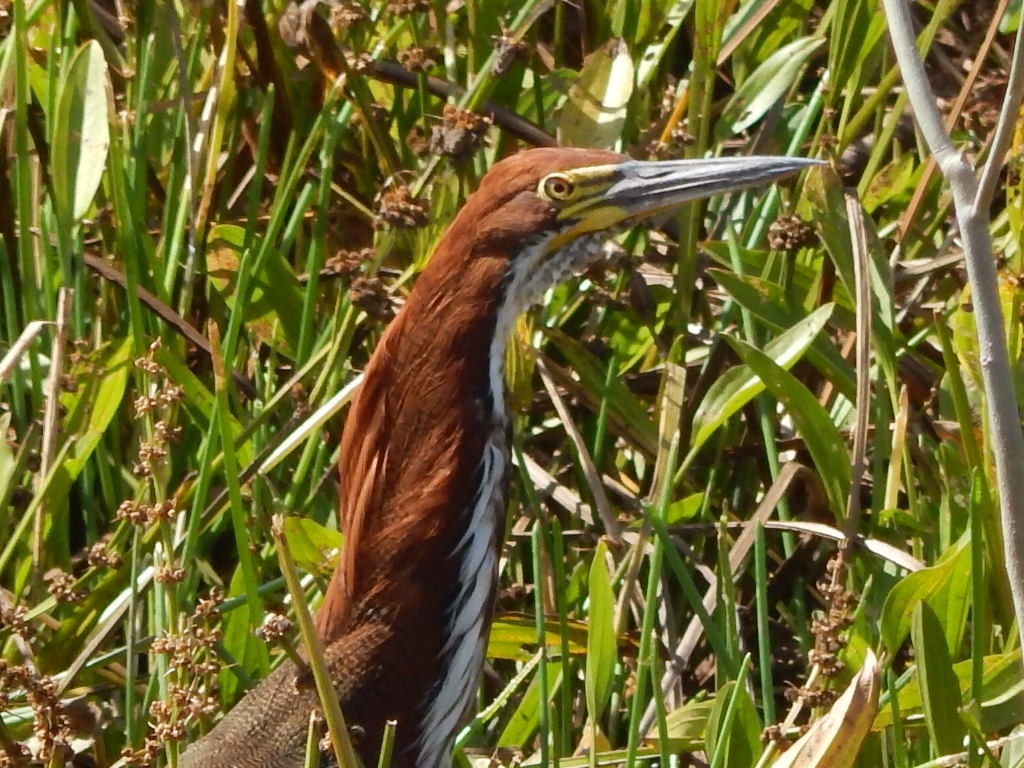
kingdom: Animalia
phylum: Chordata
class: Aves
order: Pelecaniformes
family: Ardeidae
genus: Tigrisoma
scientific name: Tigrisoma lineatum
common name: Rufescent tiger-heron
